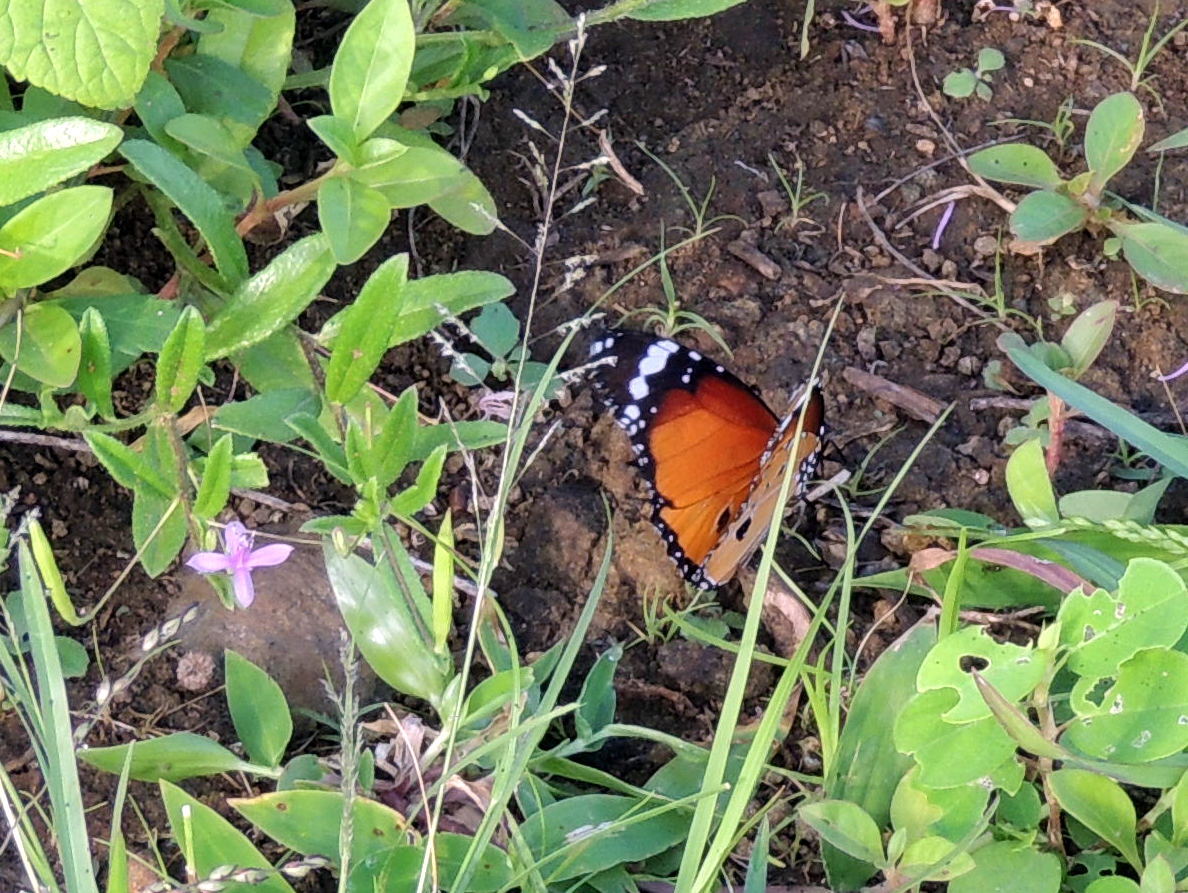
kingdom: Animalia
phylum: Arthropoda
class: Insecta
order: Lepidoptera
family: Nymphalidae
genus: Danaus
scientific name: Danaus chrysippus
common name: Plain tiger
